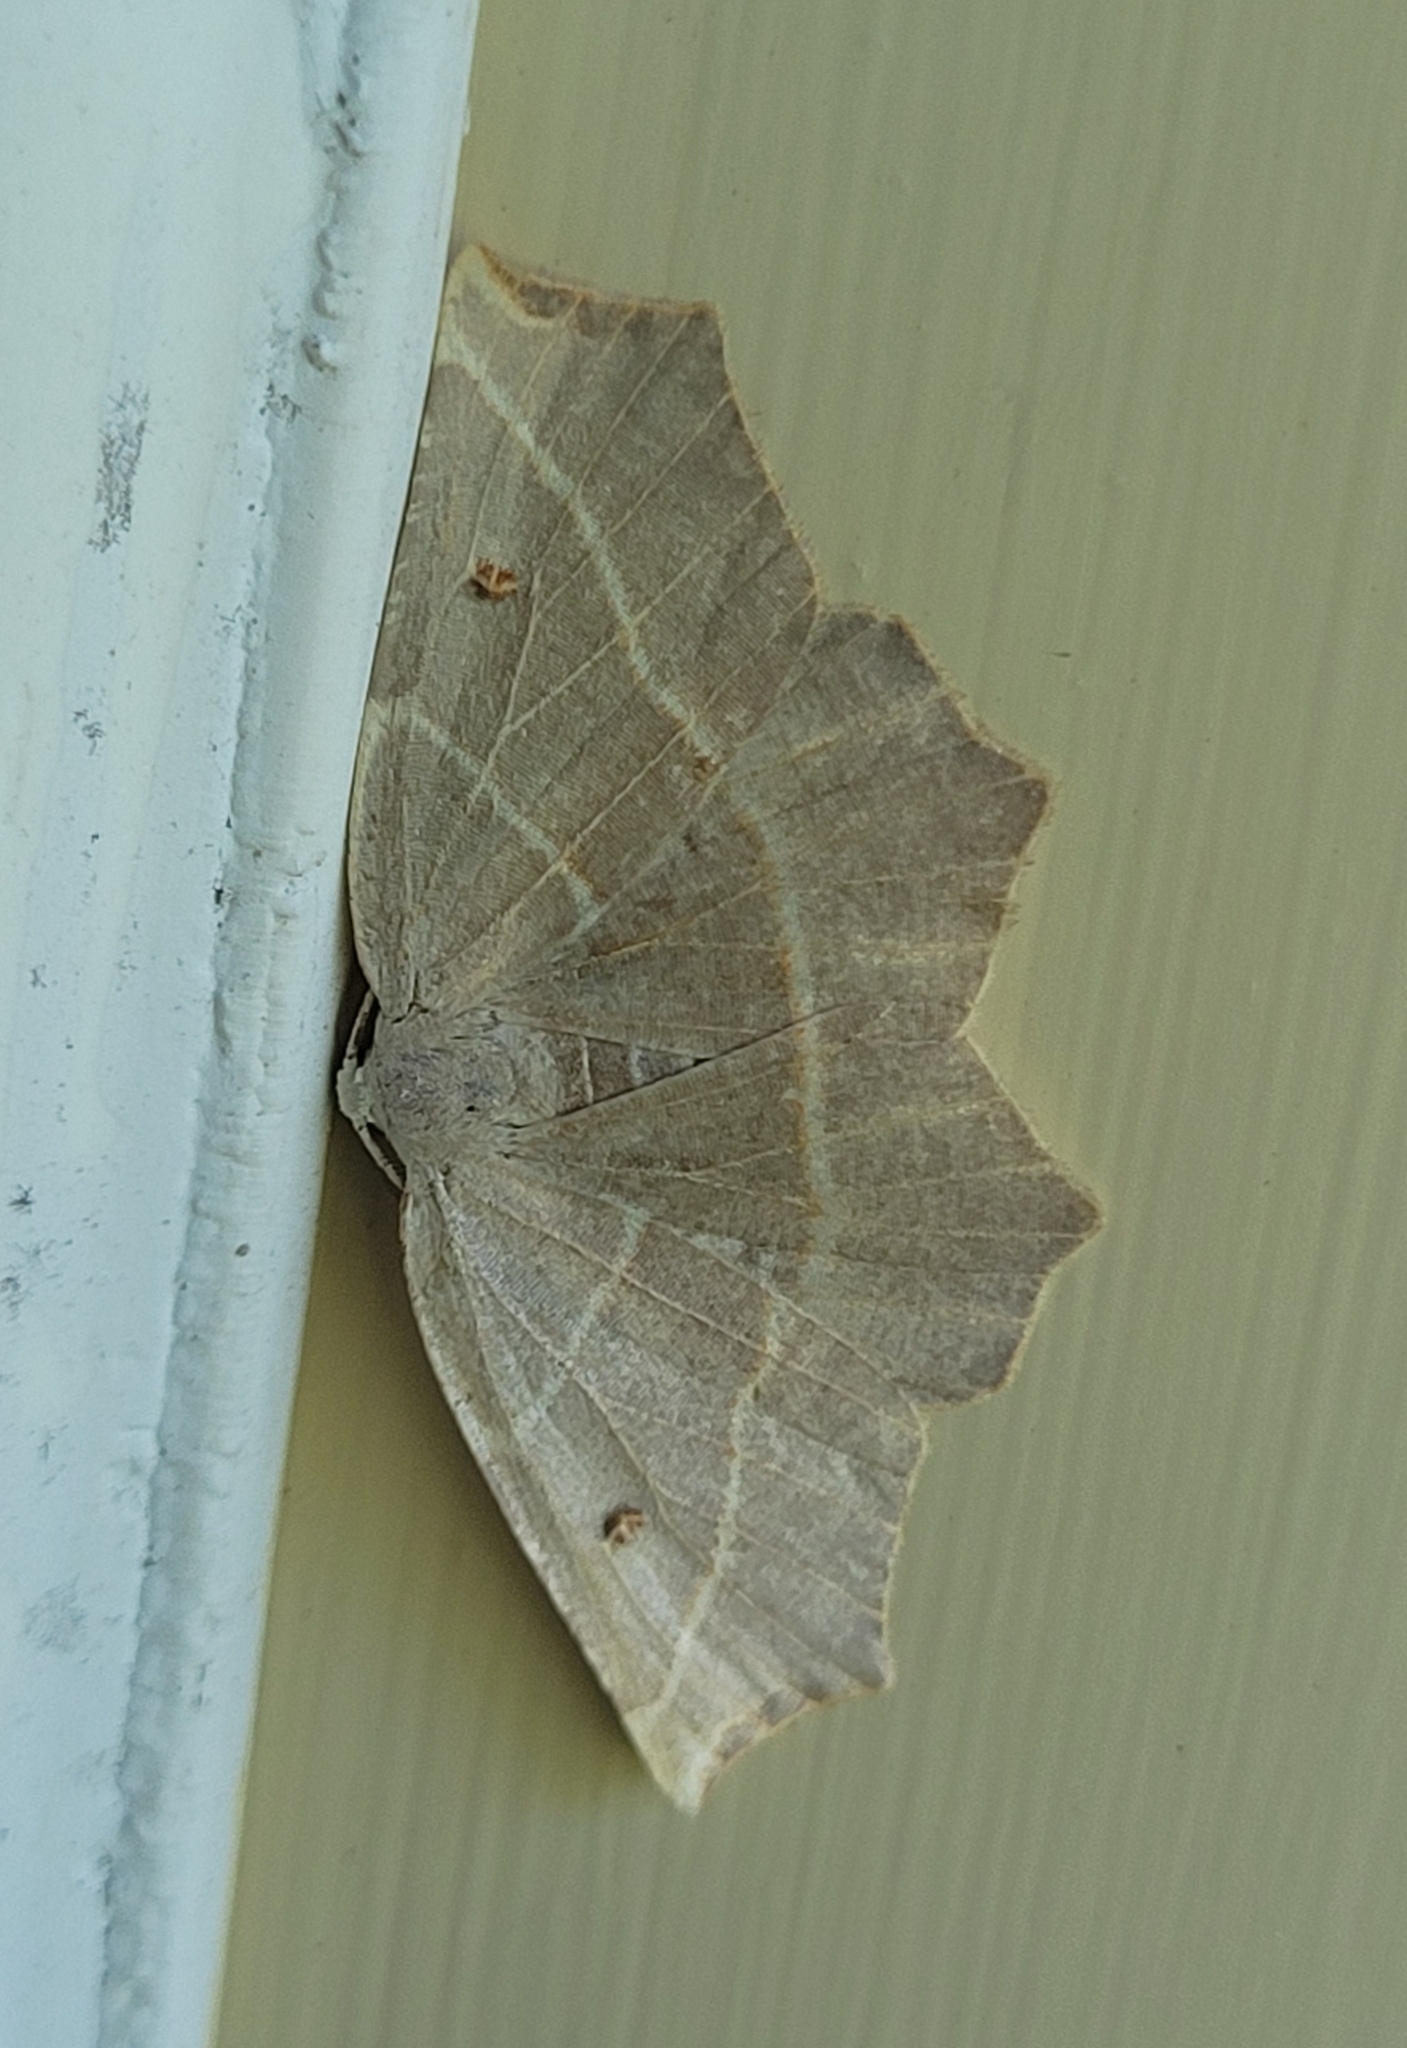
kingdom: Animalia
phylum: Arthropoda
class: Insecta
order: Lepidoptera
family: Geometridae
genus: Metanema
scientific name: Metanema inatomaria
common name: Pale metanema
